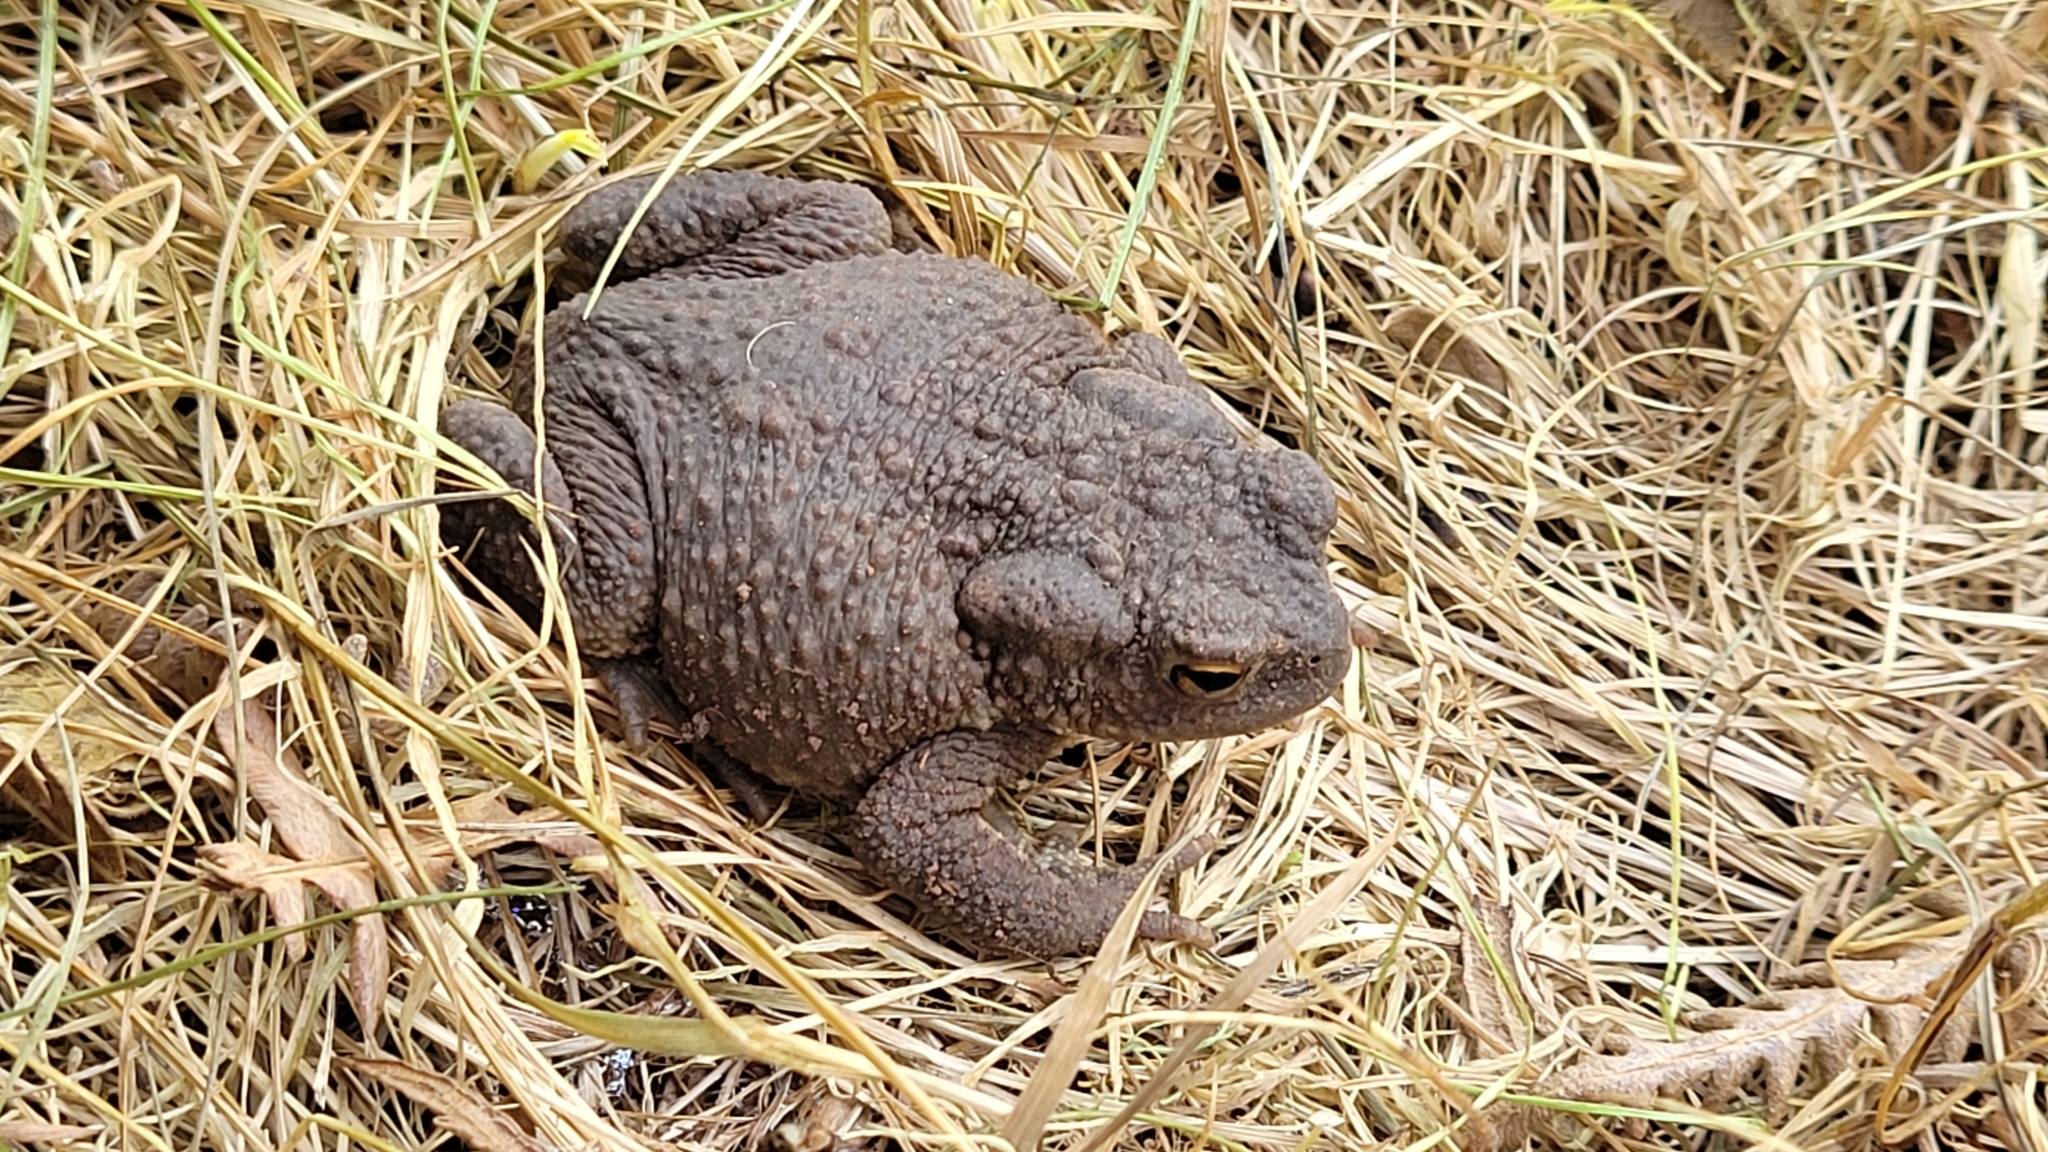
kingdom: Animalia
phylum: Chordata
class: Amphibia
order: Anura
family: Bufonidae
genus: Bufo
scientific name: Bufo bufo
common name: Common toad
